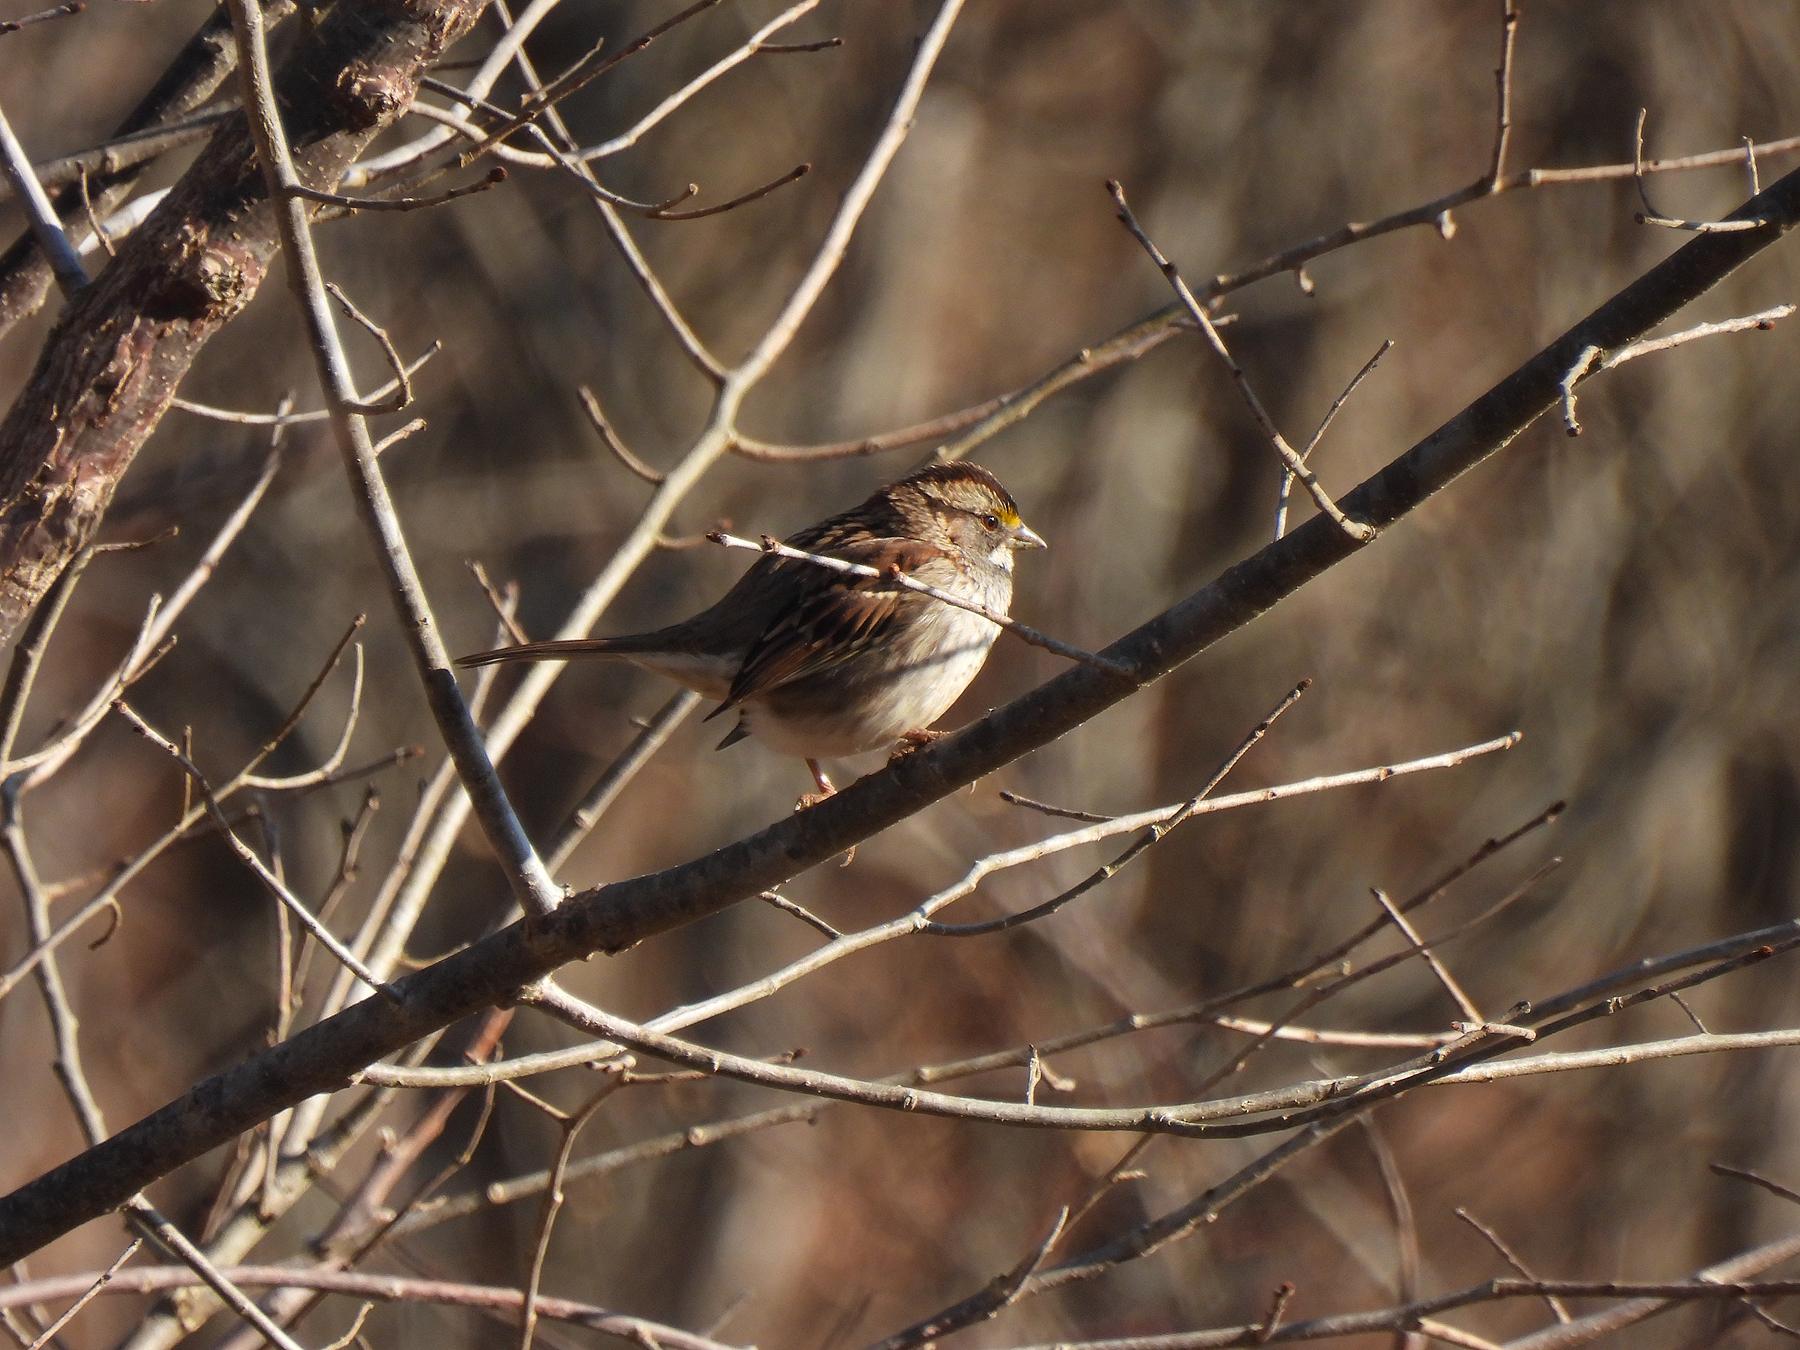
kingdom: Animalia
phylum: Chordata
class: Aves
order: Passeriformes
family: Passerellidae
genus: Zonotrichia
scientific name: Zonotrichia albicollis
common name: White-throated sparrow
